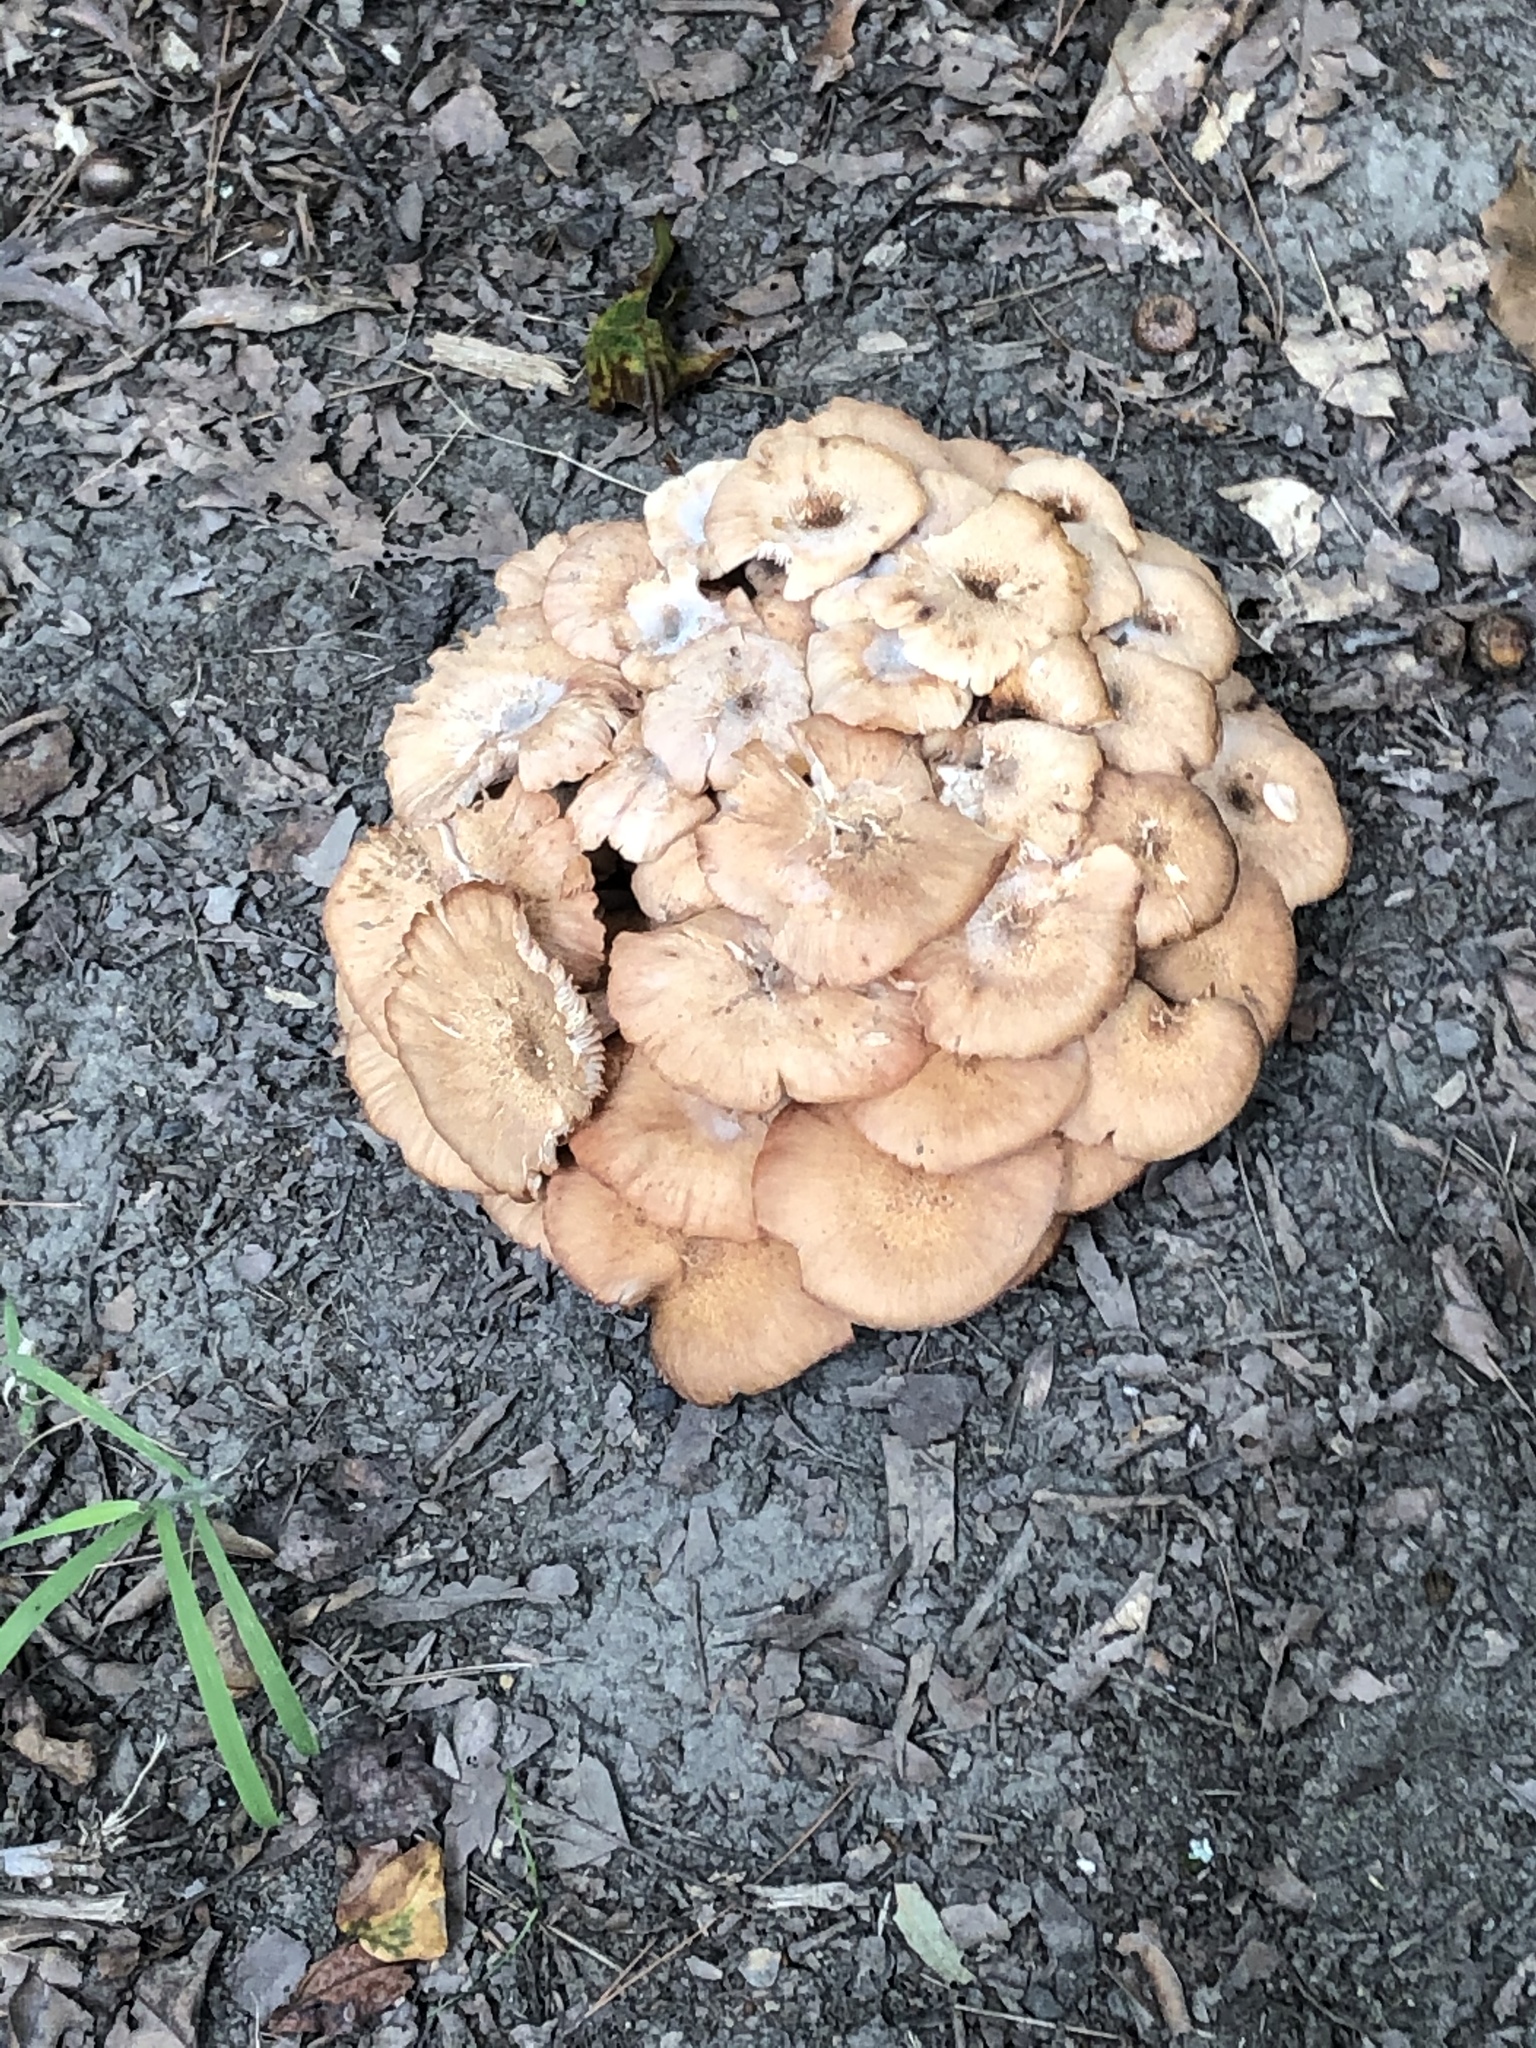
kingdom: Fungi
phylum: Basidiomycota
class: Agaricomycetes
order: Agaricales
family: Physalacriaceae
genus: Desarmillaria
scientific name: Desarmillaria caespitosa
